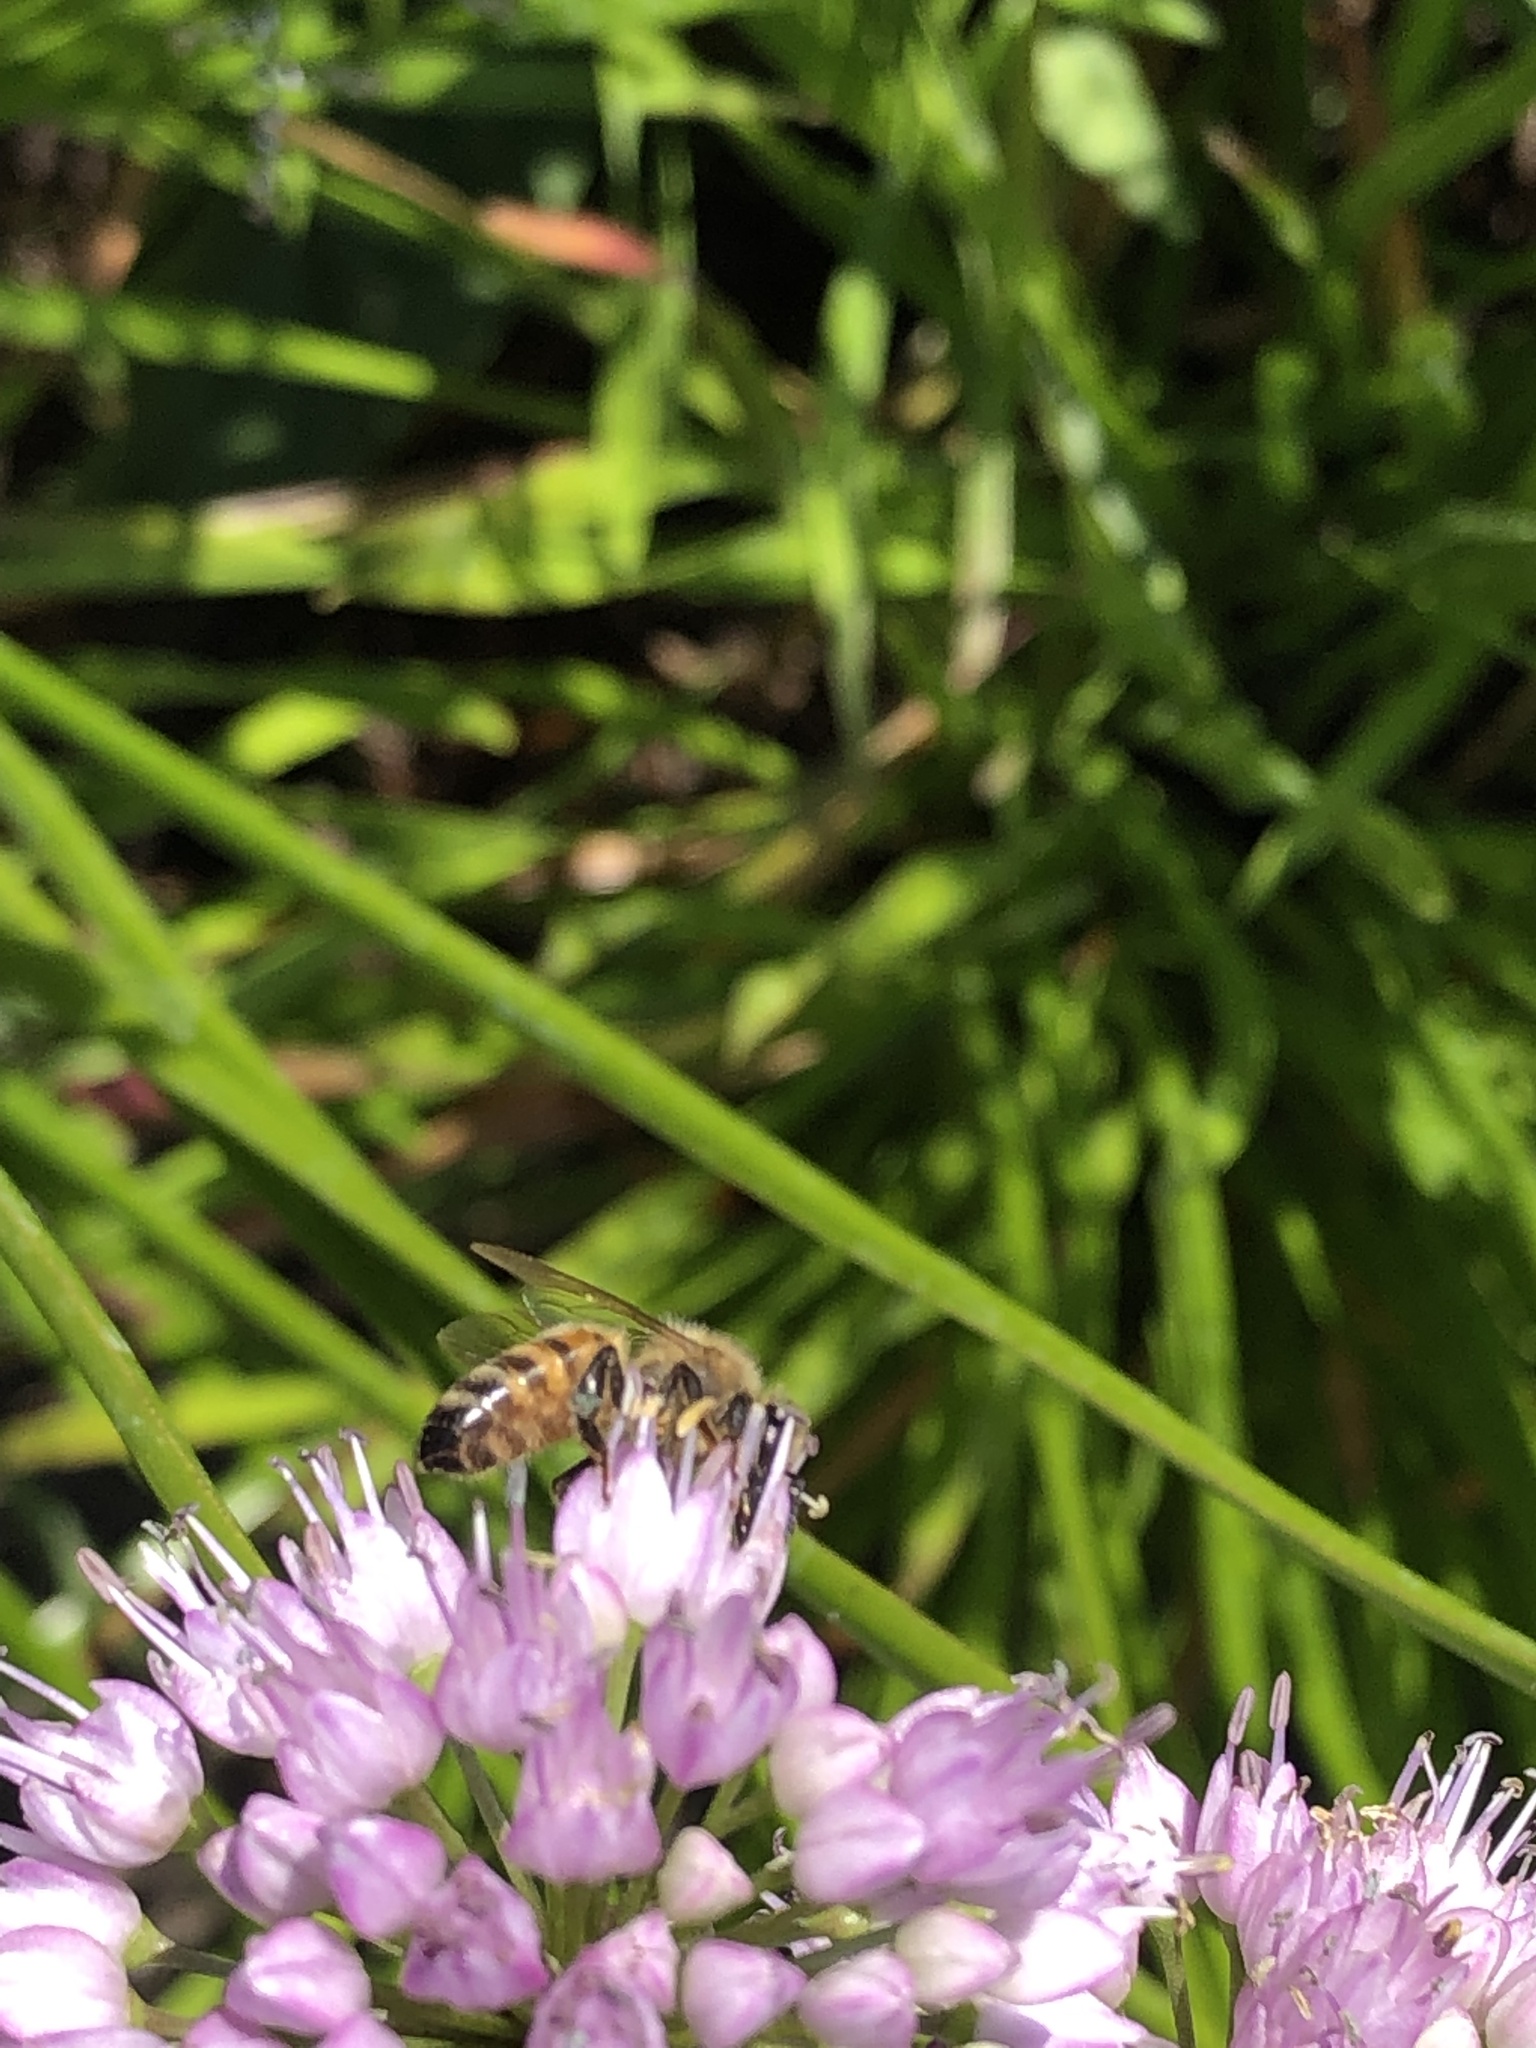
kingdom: Animalia
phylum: Arthropoda
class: Insecta
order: Hymenoptera
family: Apidae
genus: Apis
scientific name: Apis mellifera
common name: Honey bee
